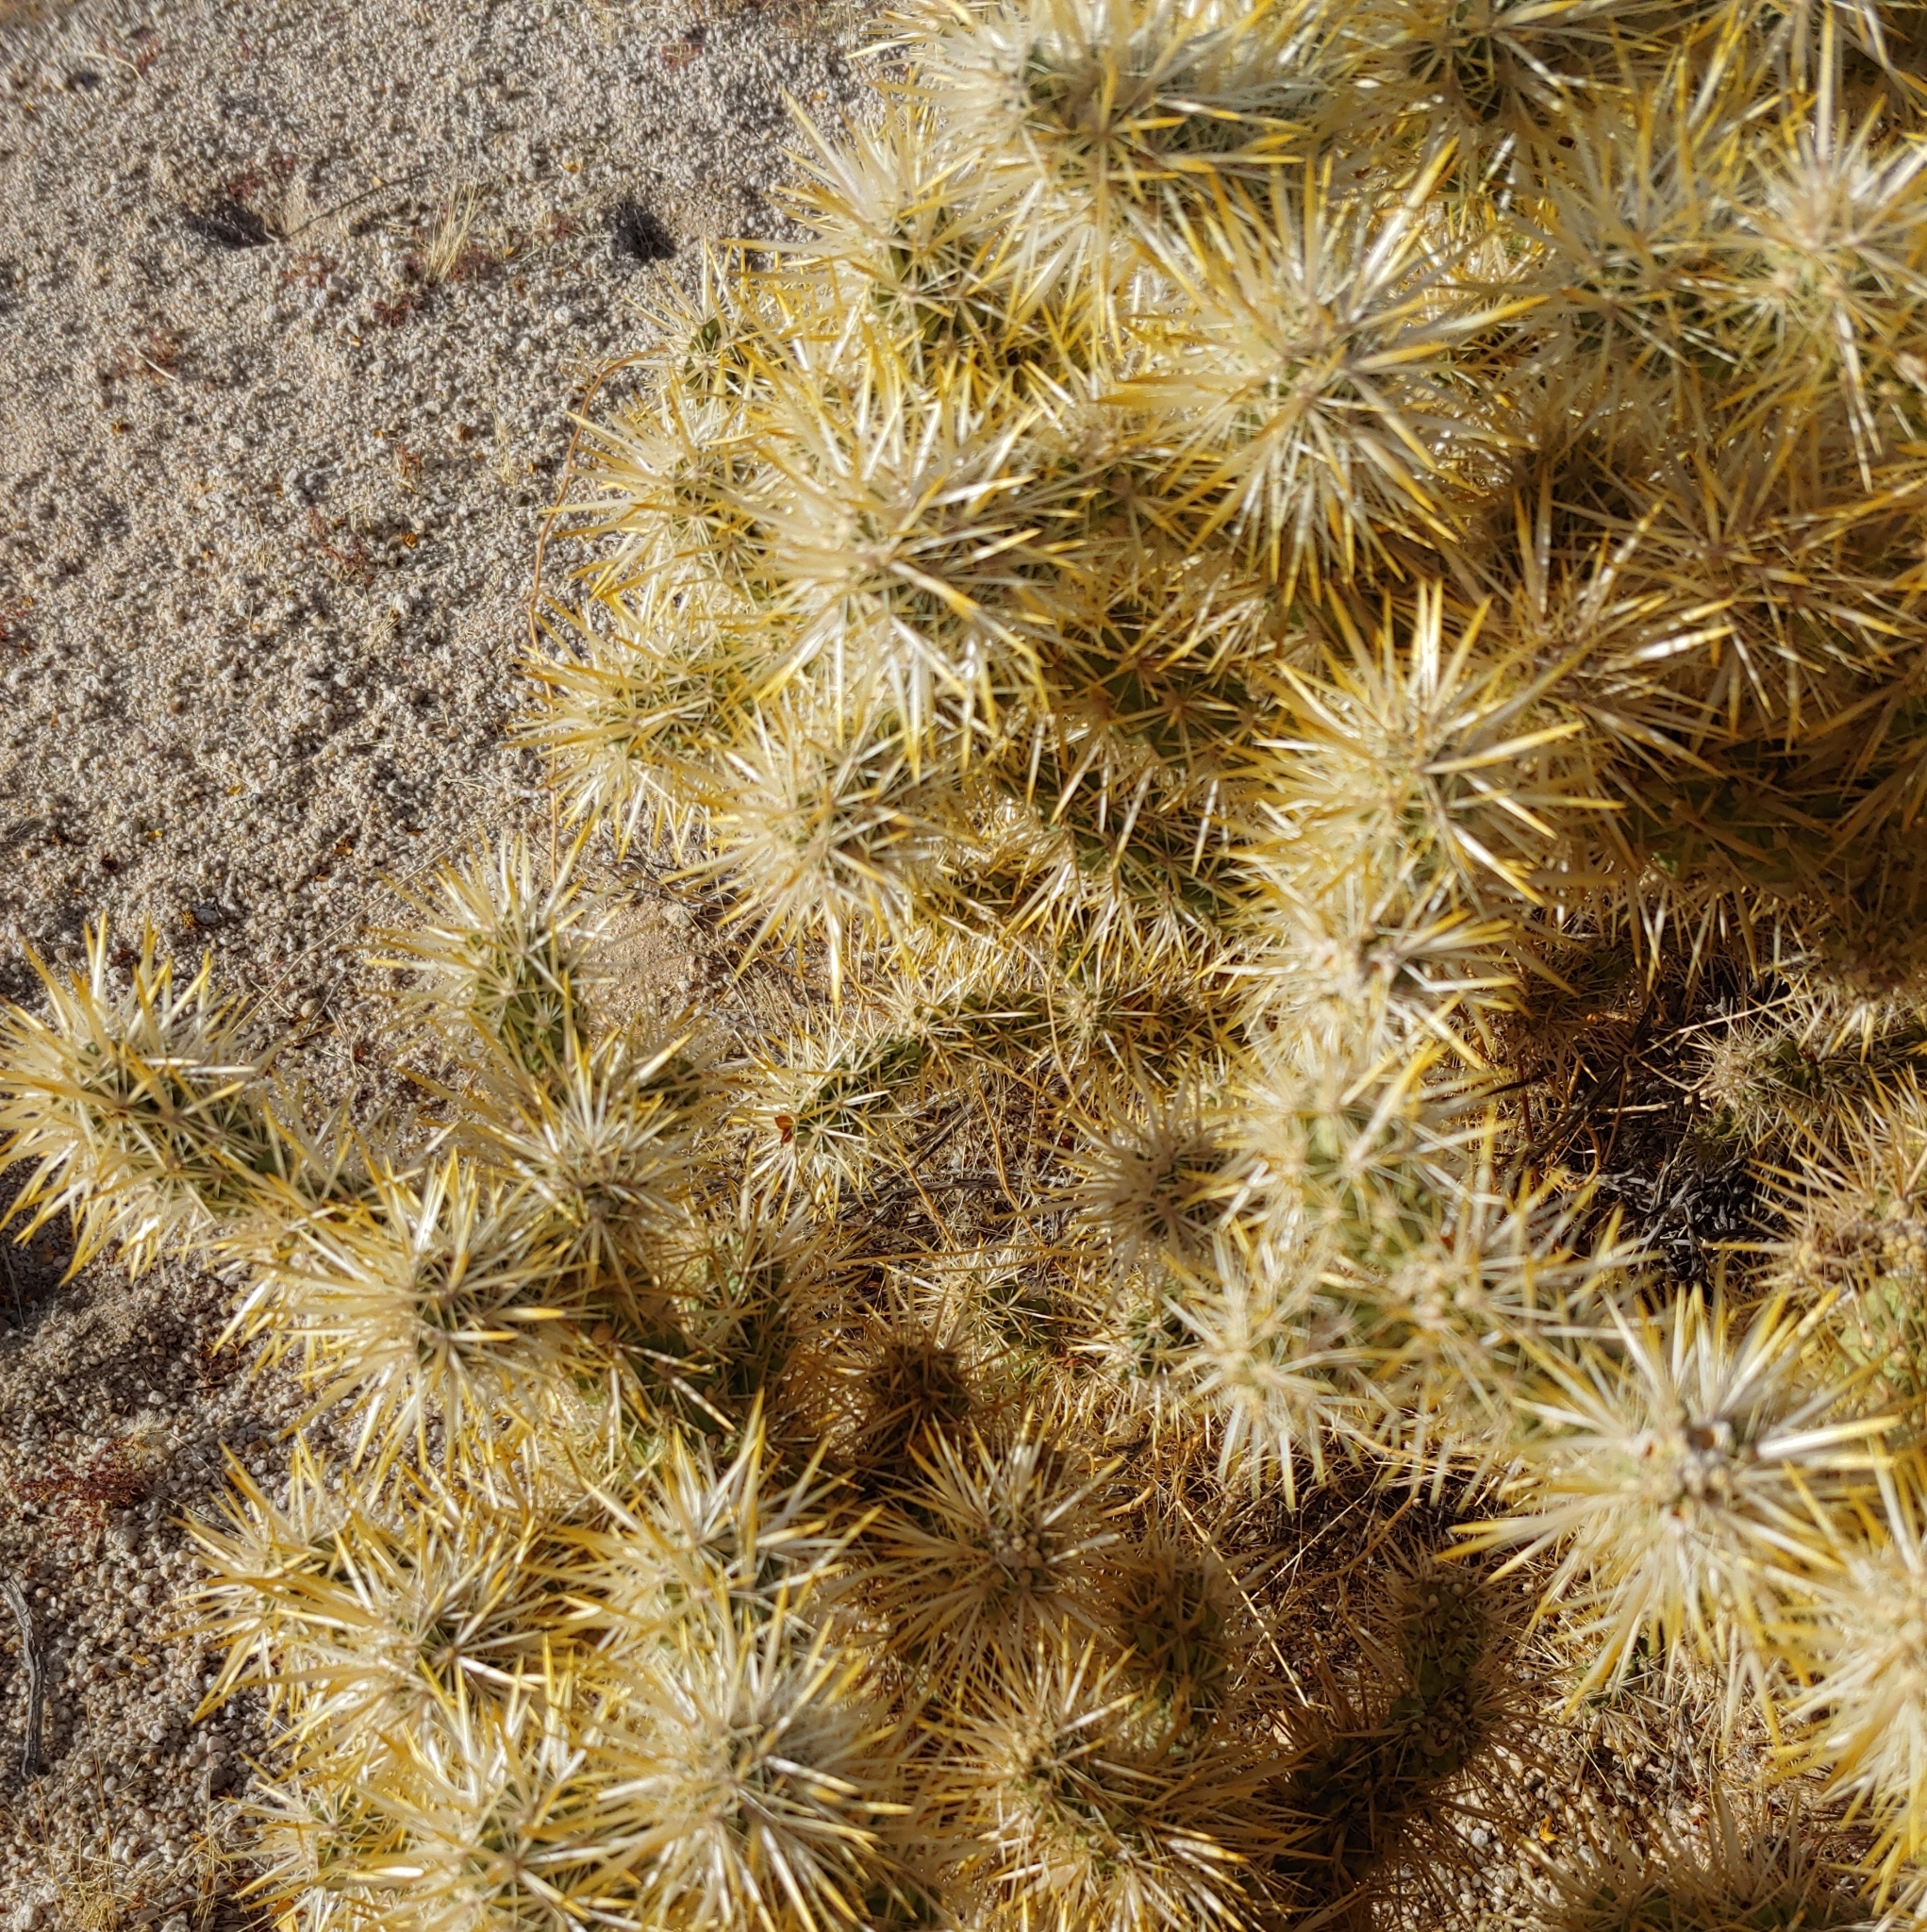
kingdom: Plantae
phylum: Tracheophyta
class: Magnoliopsida
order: Caryophyllales
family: Cactaceae
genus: Cylindropuntia
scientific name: Cylindropuntia echinocarpa
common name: Ground cholla
